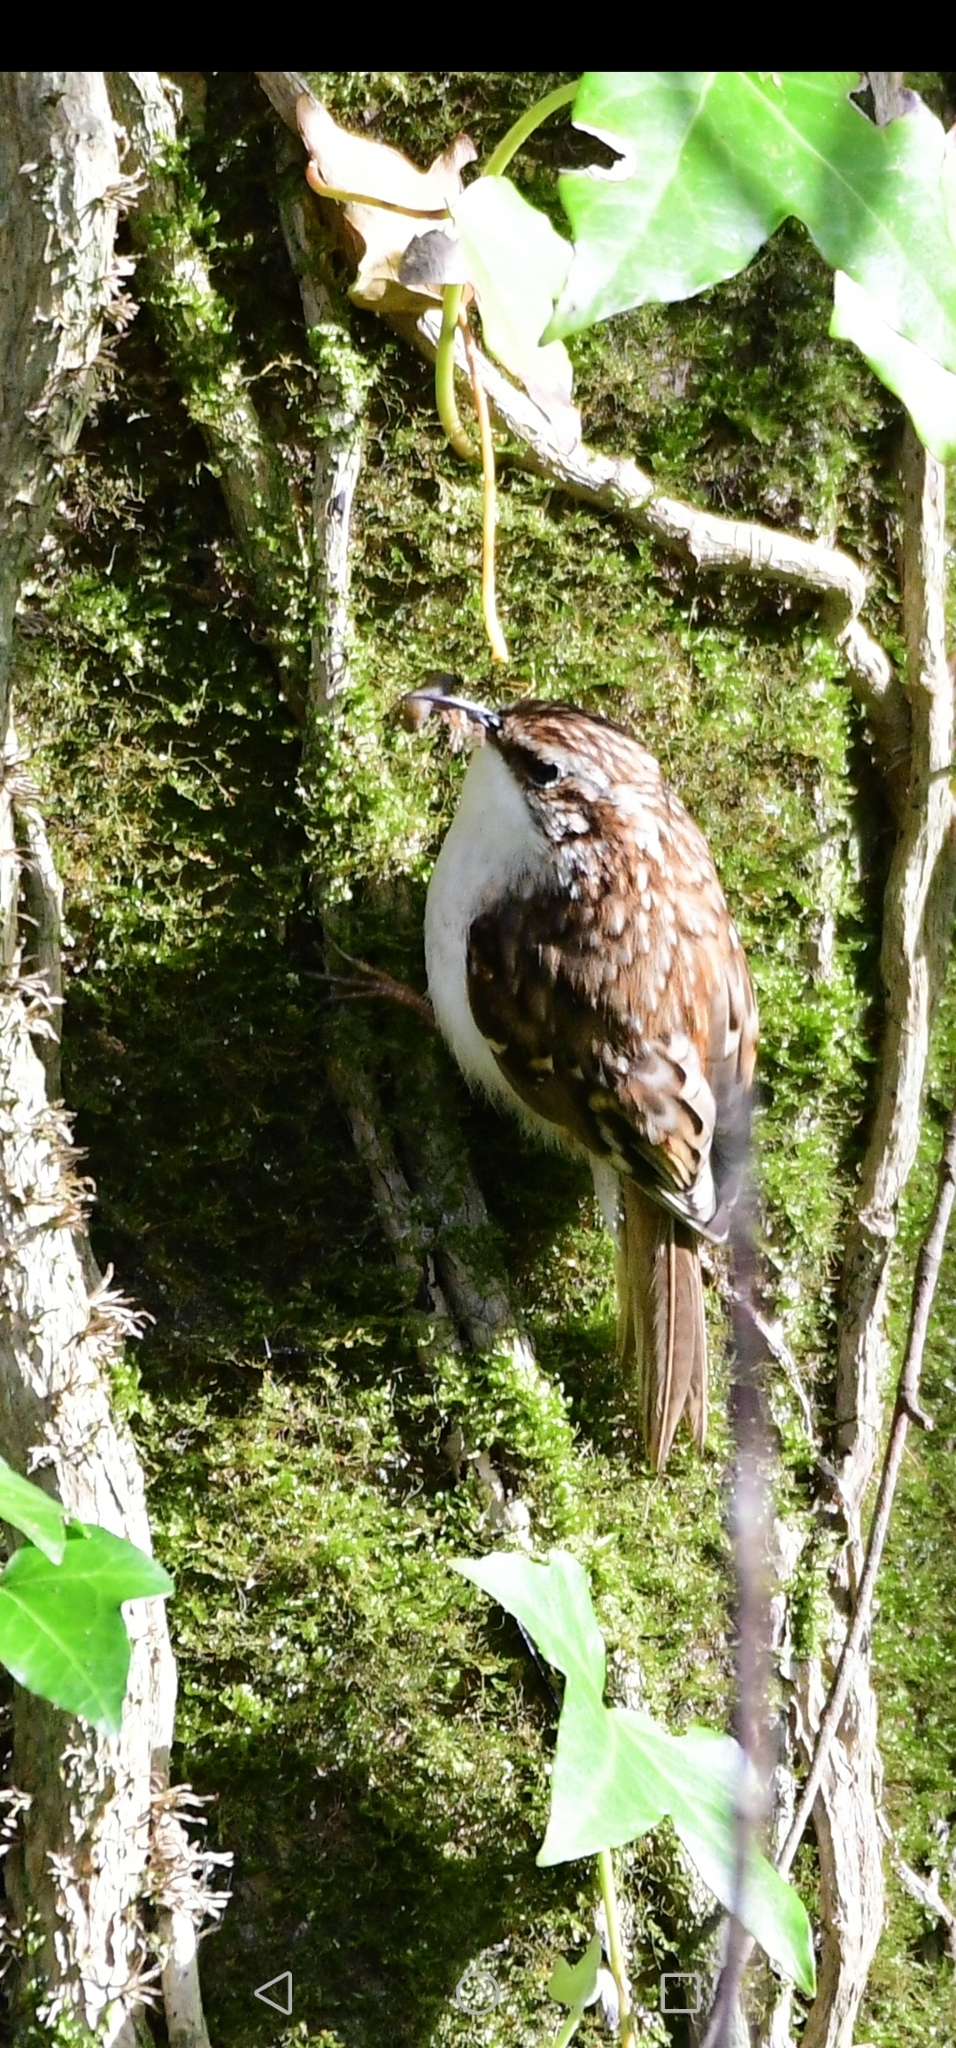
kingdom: Animalia
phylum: Chordata
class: Aves
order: Passeriformes
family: Certhiidae
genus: Certhia
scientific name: Certhia familiaris
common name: Eurasian treecreeper
